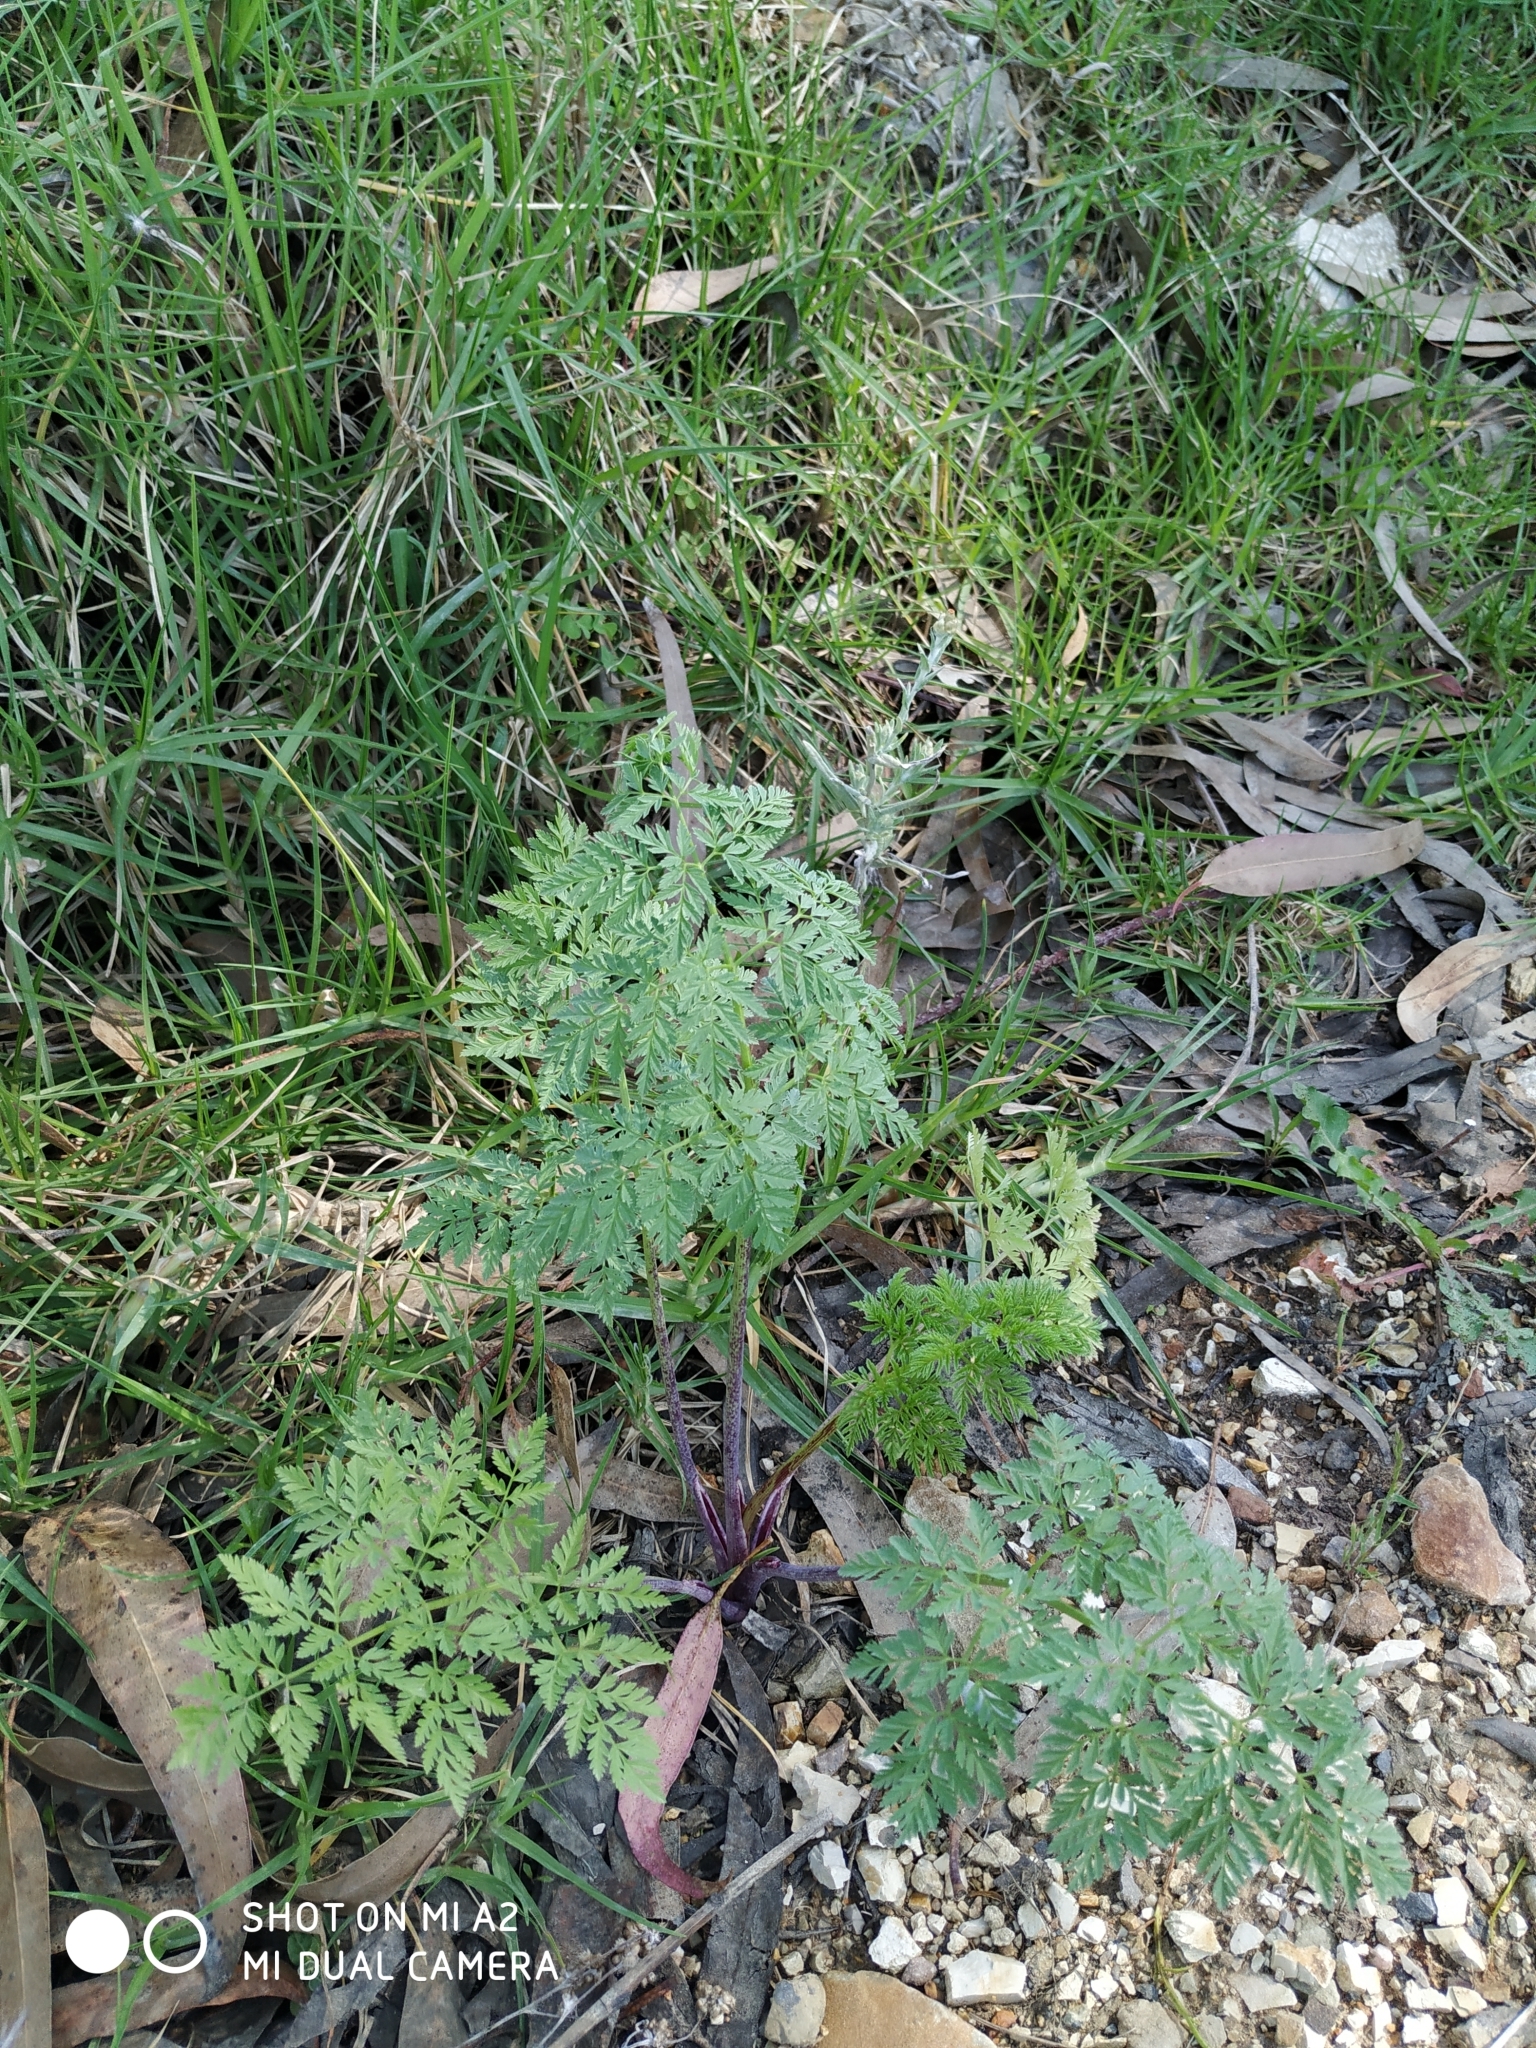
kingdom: Plantae
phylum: Tracheophyta
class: Magnoliopsida
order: Apiales
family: Apiaceae
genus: Conium
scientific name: Conium maculatum
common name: Hemlock
